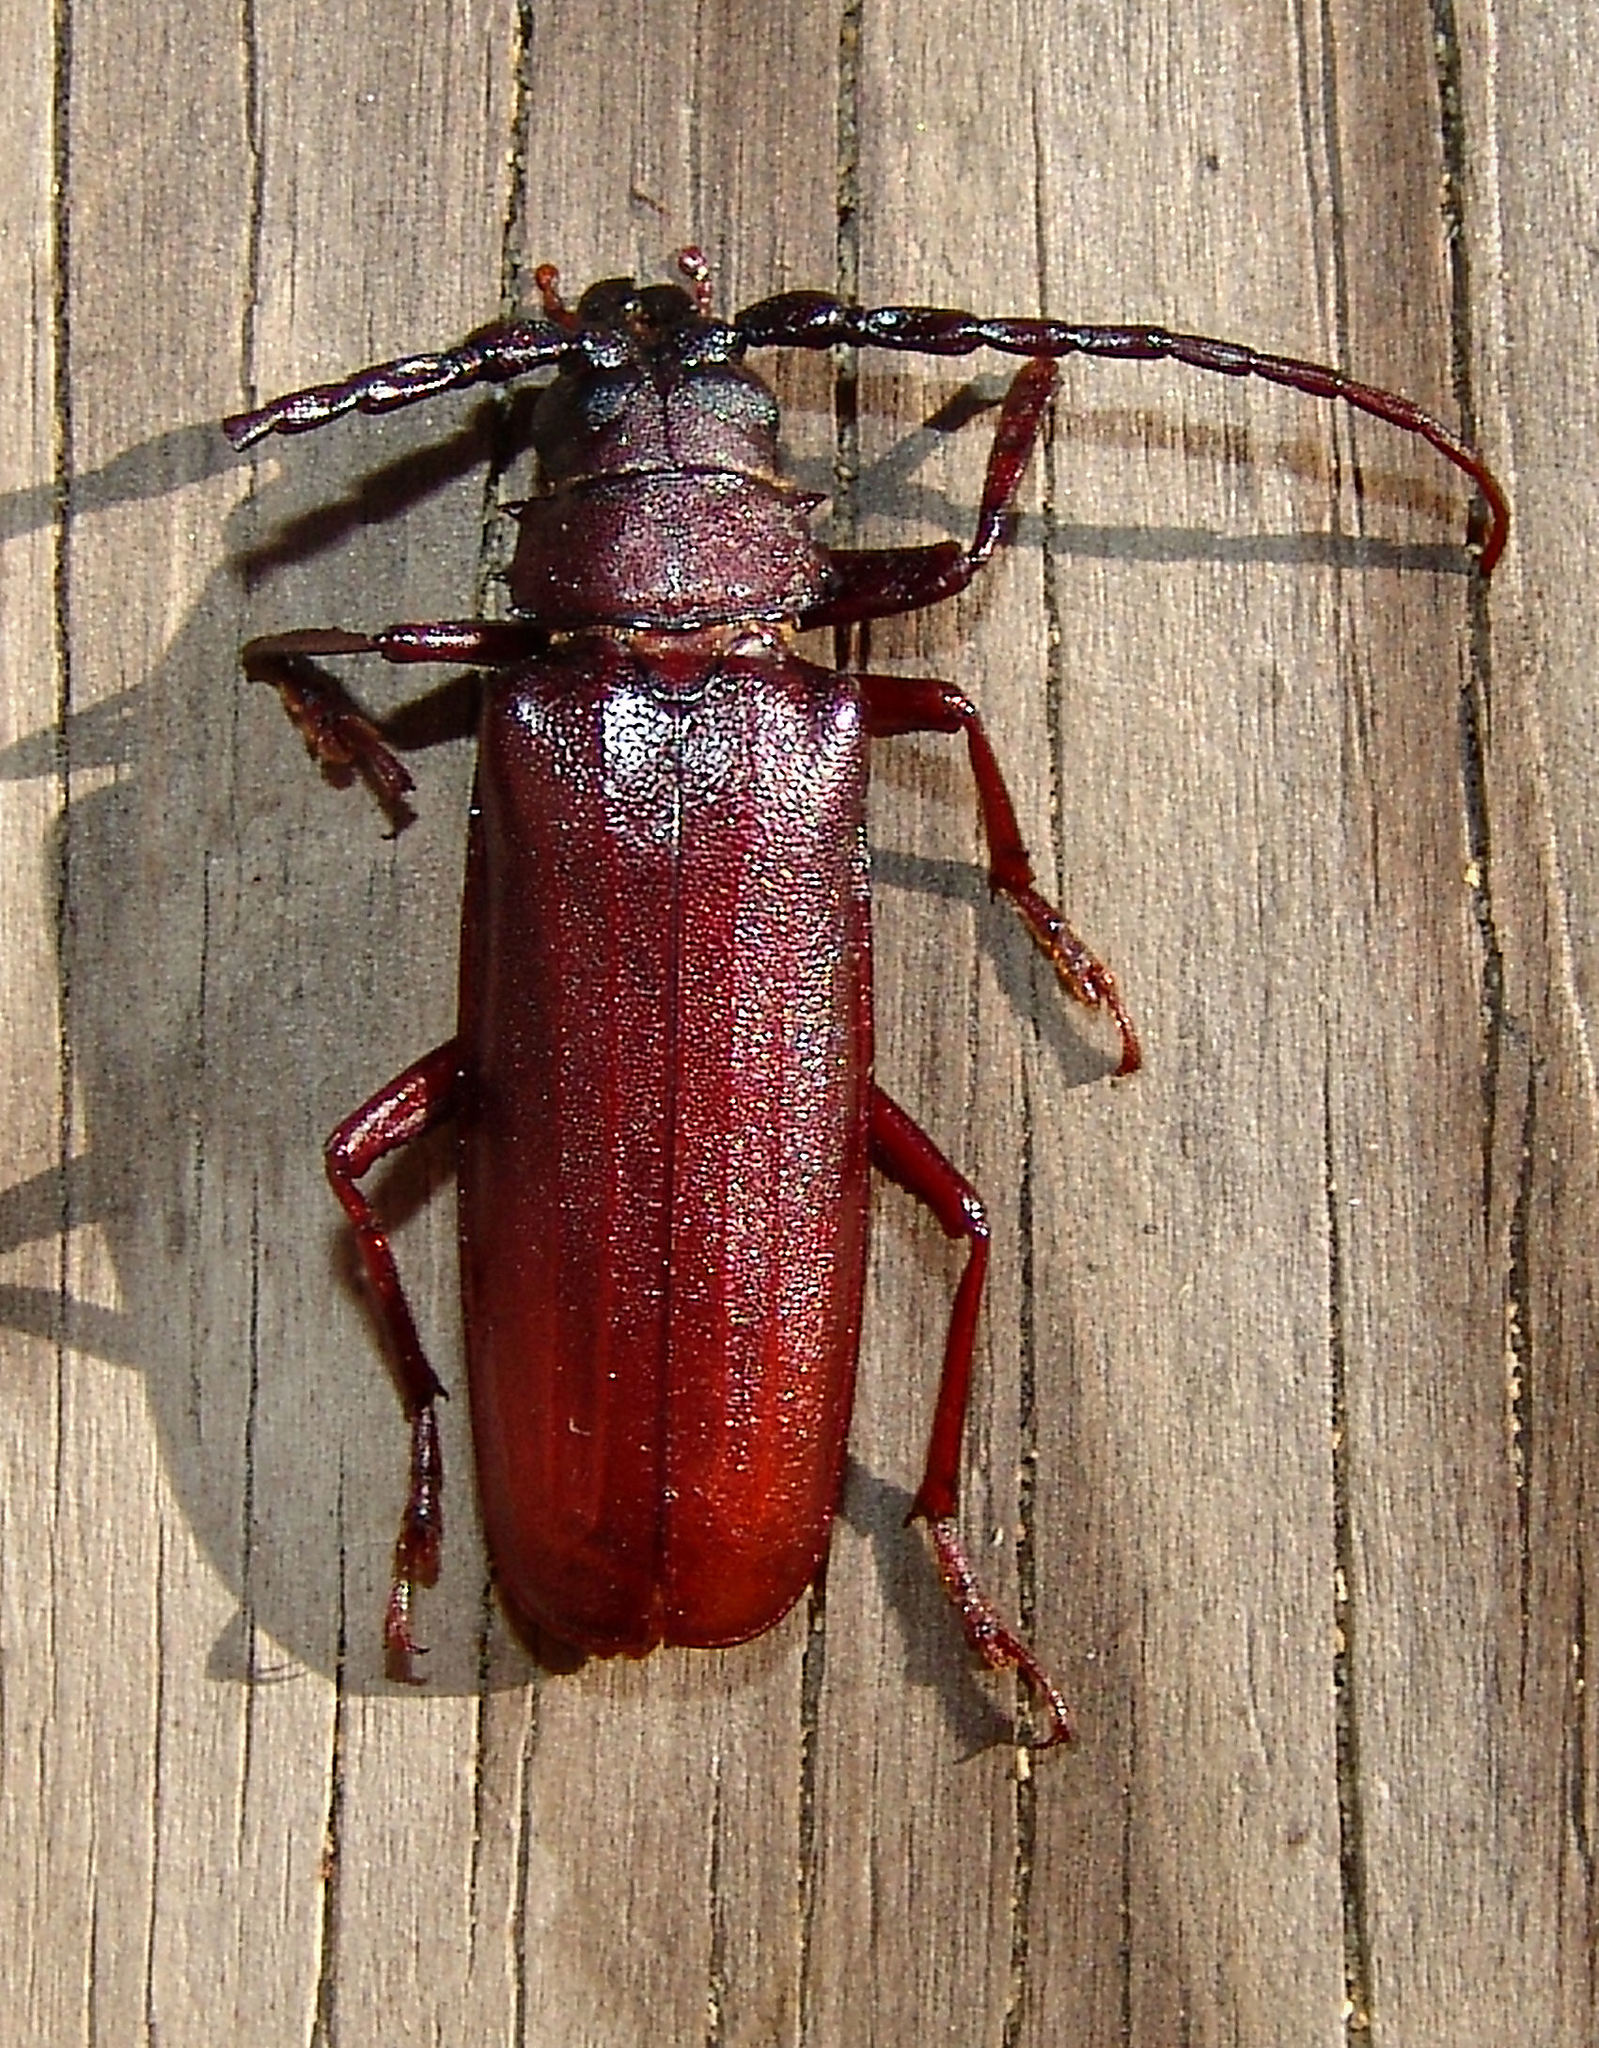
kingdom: Animalia
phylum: Arthropoda
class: Insecta
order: Coleoptera
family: Cerambycidae
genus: Orthosoma
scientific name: Orthosoma brunneum
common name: Brown prionid beetle
